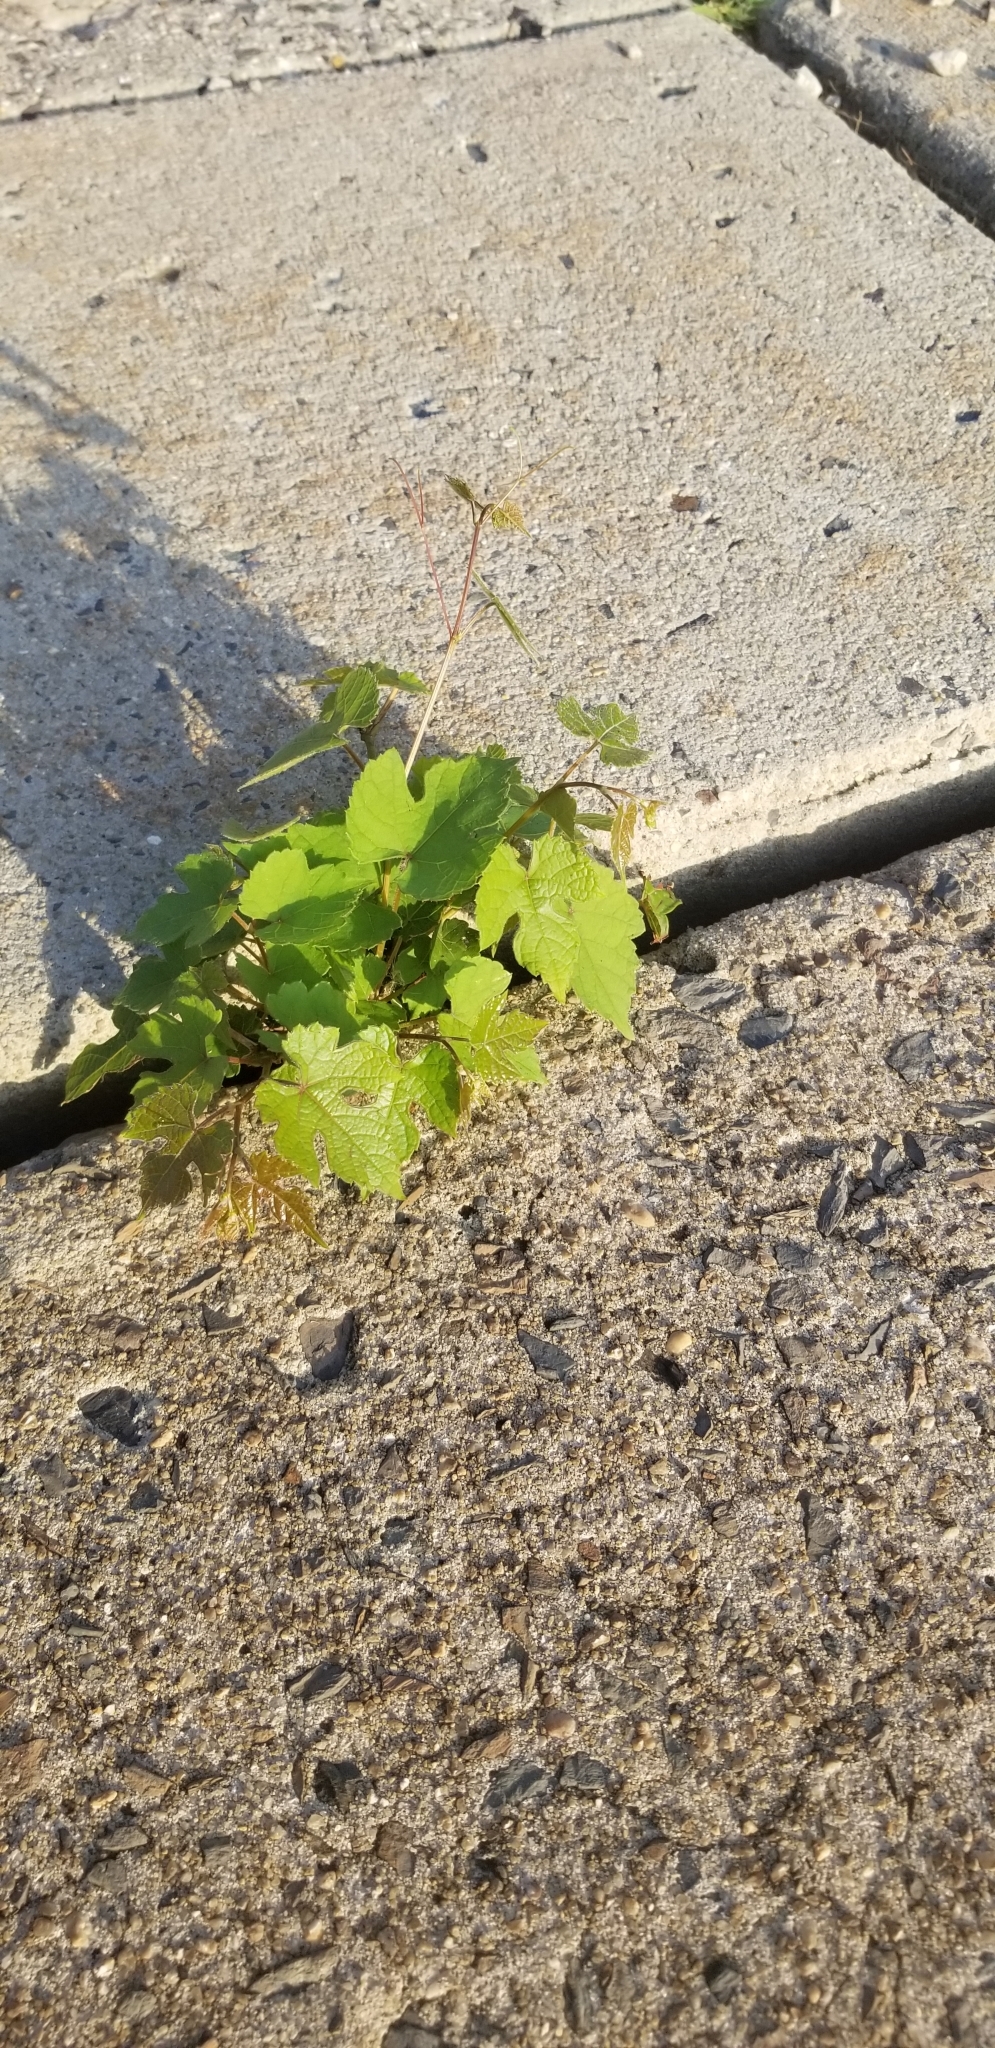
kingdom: Plantae
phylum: Tracheophyta
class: Magnoliopsida
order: Vitales
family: Vitaceae
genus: Vitis
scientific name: Vitis vinifera
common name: Grape-vine
